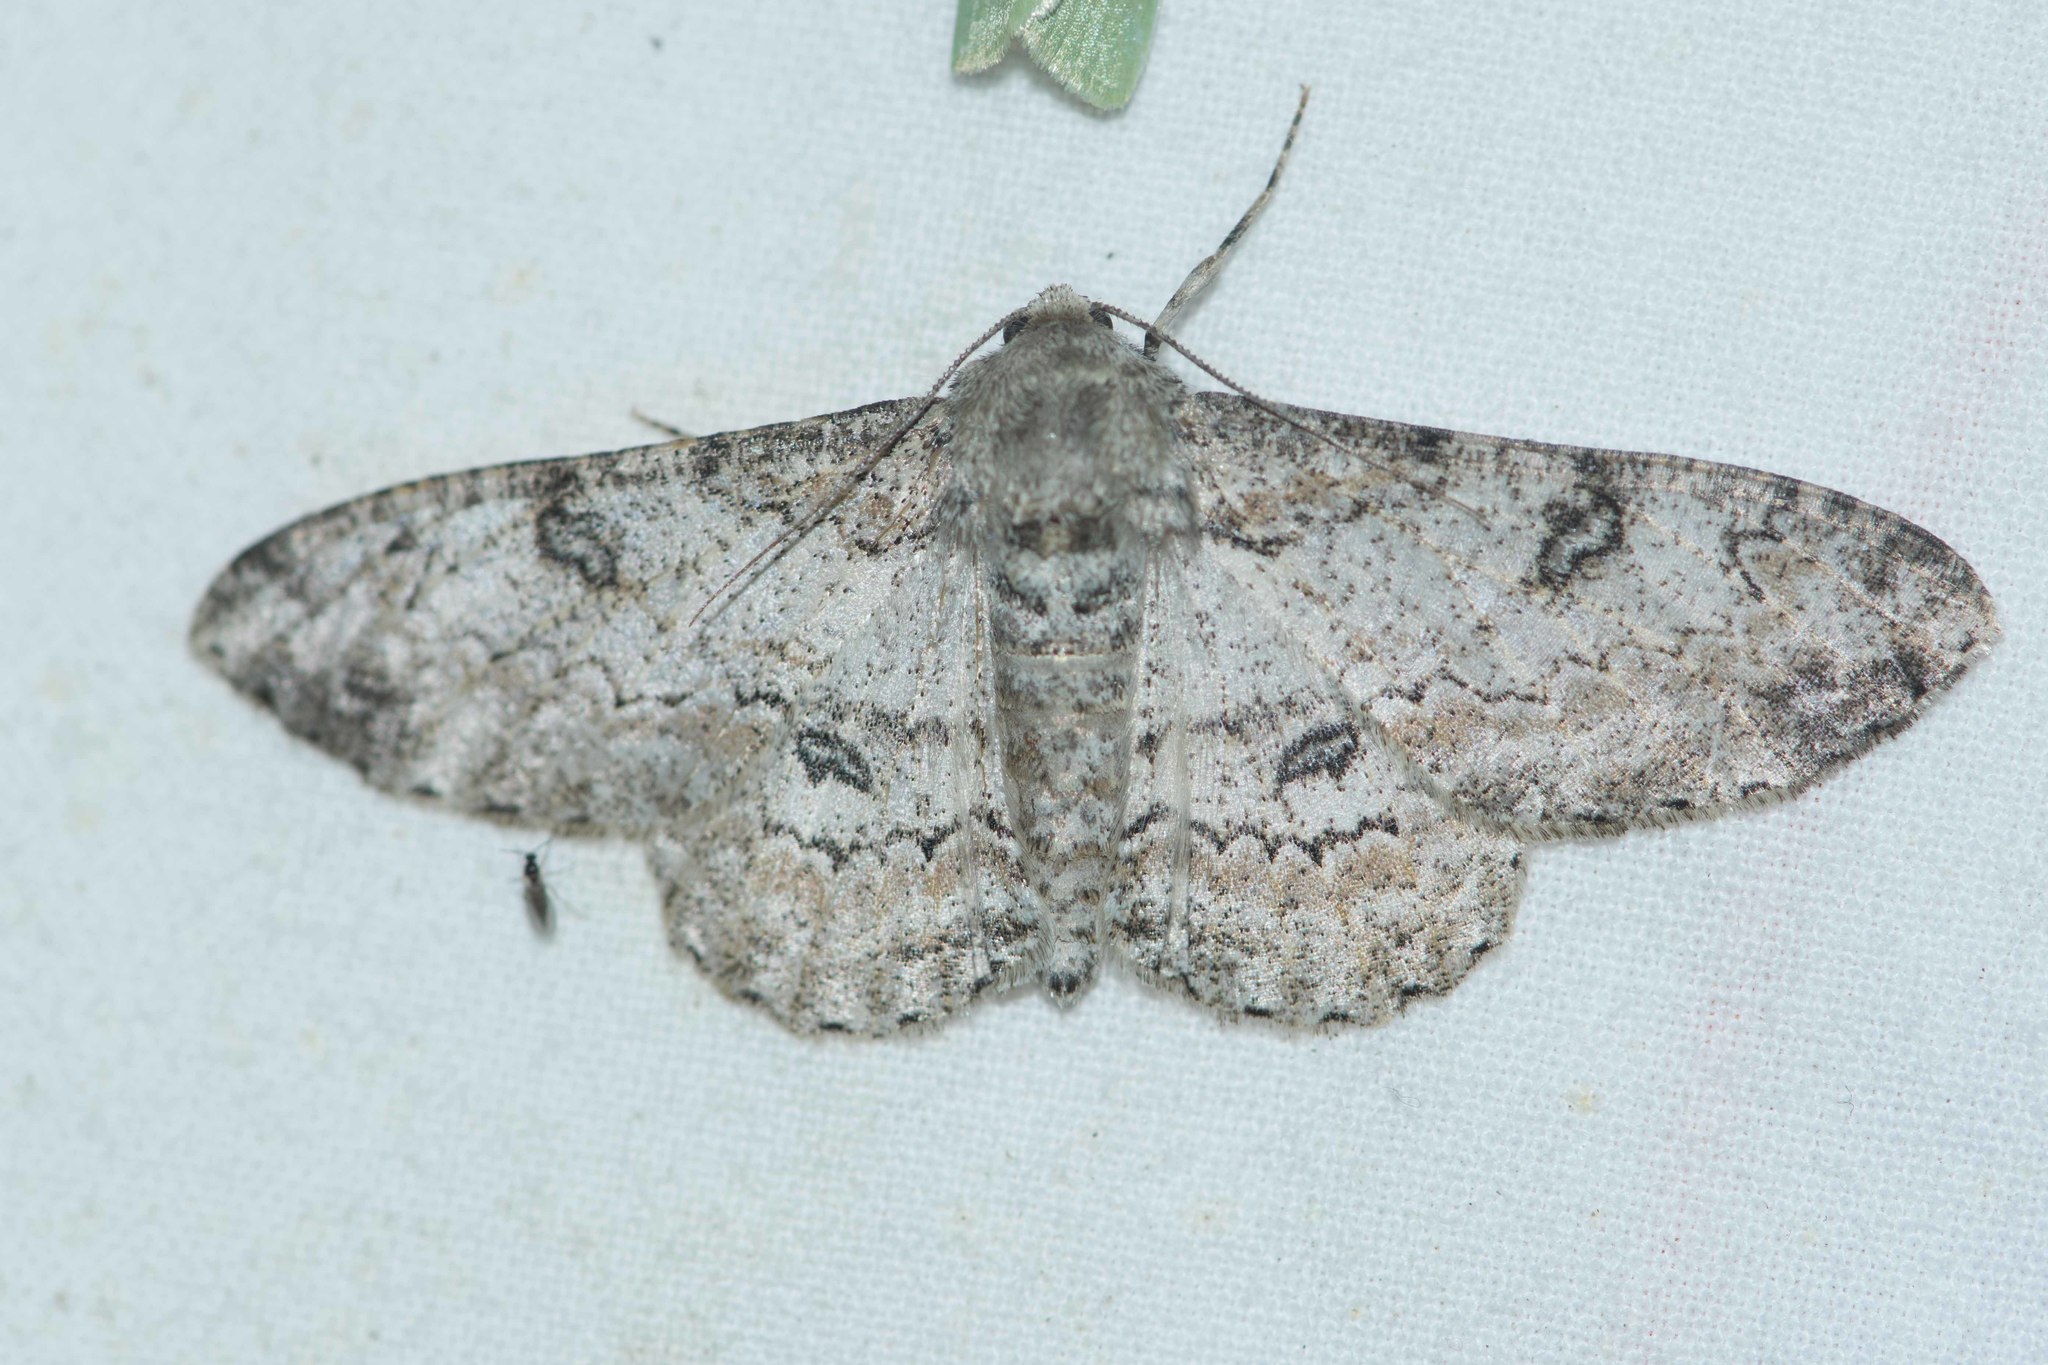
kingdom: Animalia
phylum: Arthropoda
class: Insecta
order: Lepidoptera
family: Geometridae
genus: Ascotis
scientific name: Ascotis selenaria
